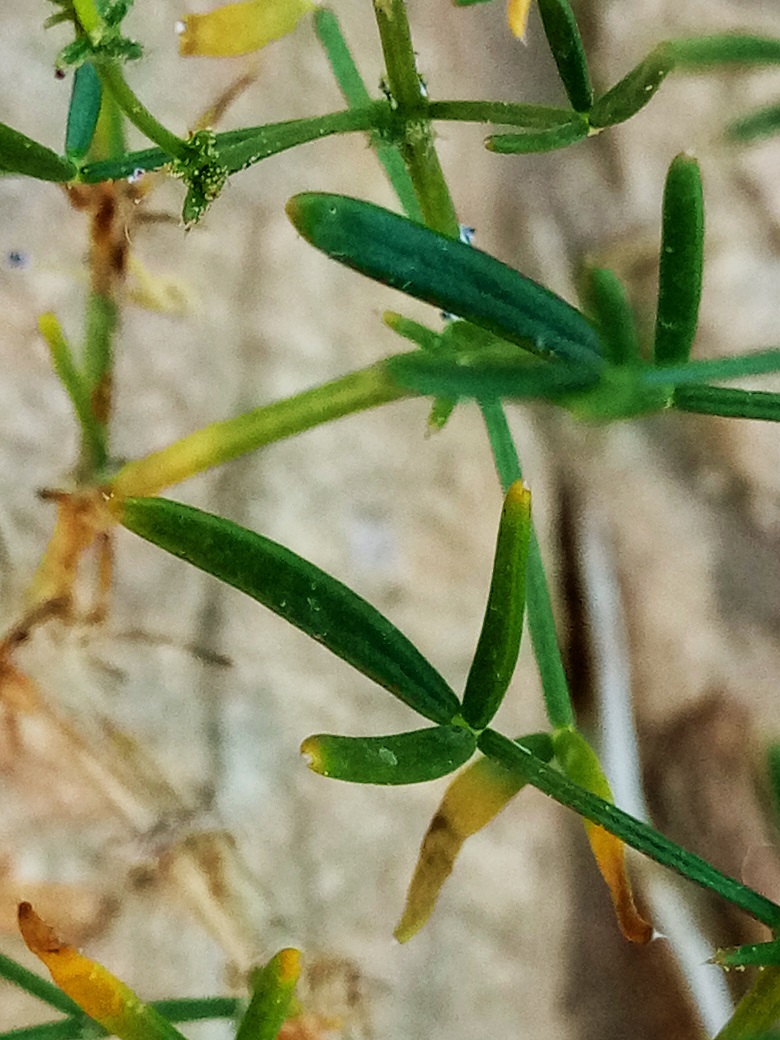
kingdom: Plantae
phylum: Tracheophyta
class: Magnoliopsida
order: Zygophyllales
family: Zygophyllaceae
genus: Fagonia
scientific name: Fagonia orientalis
